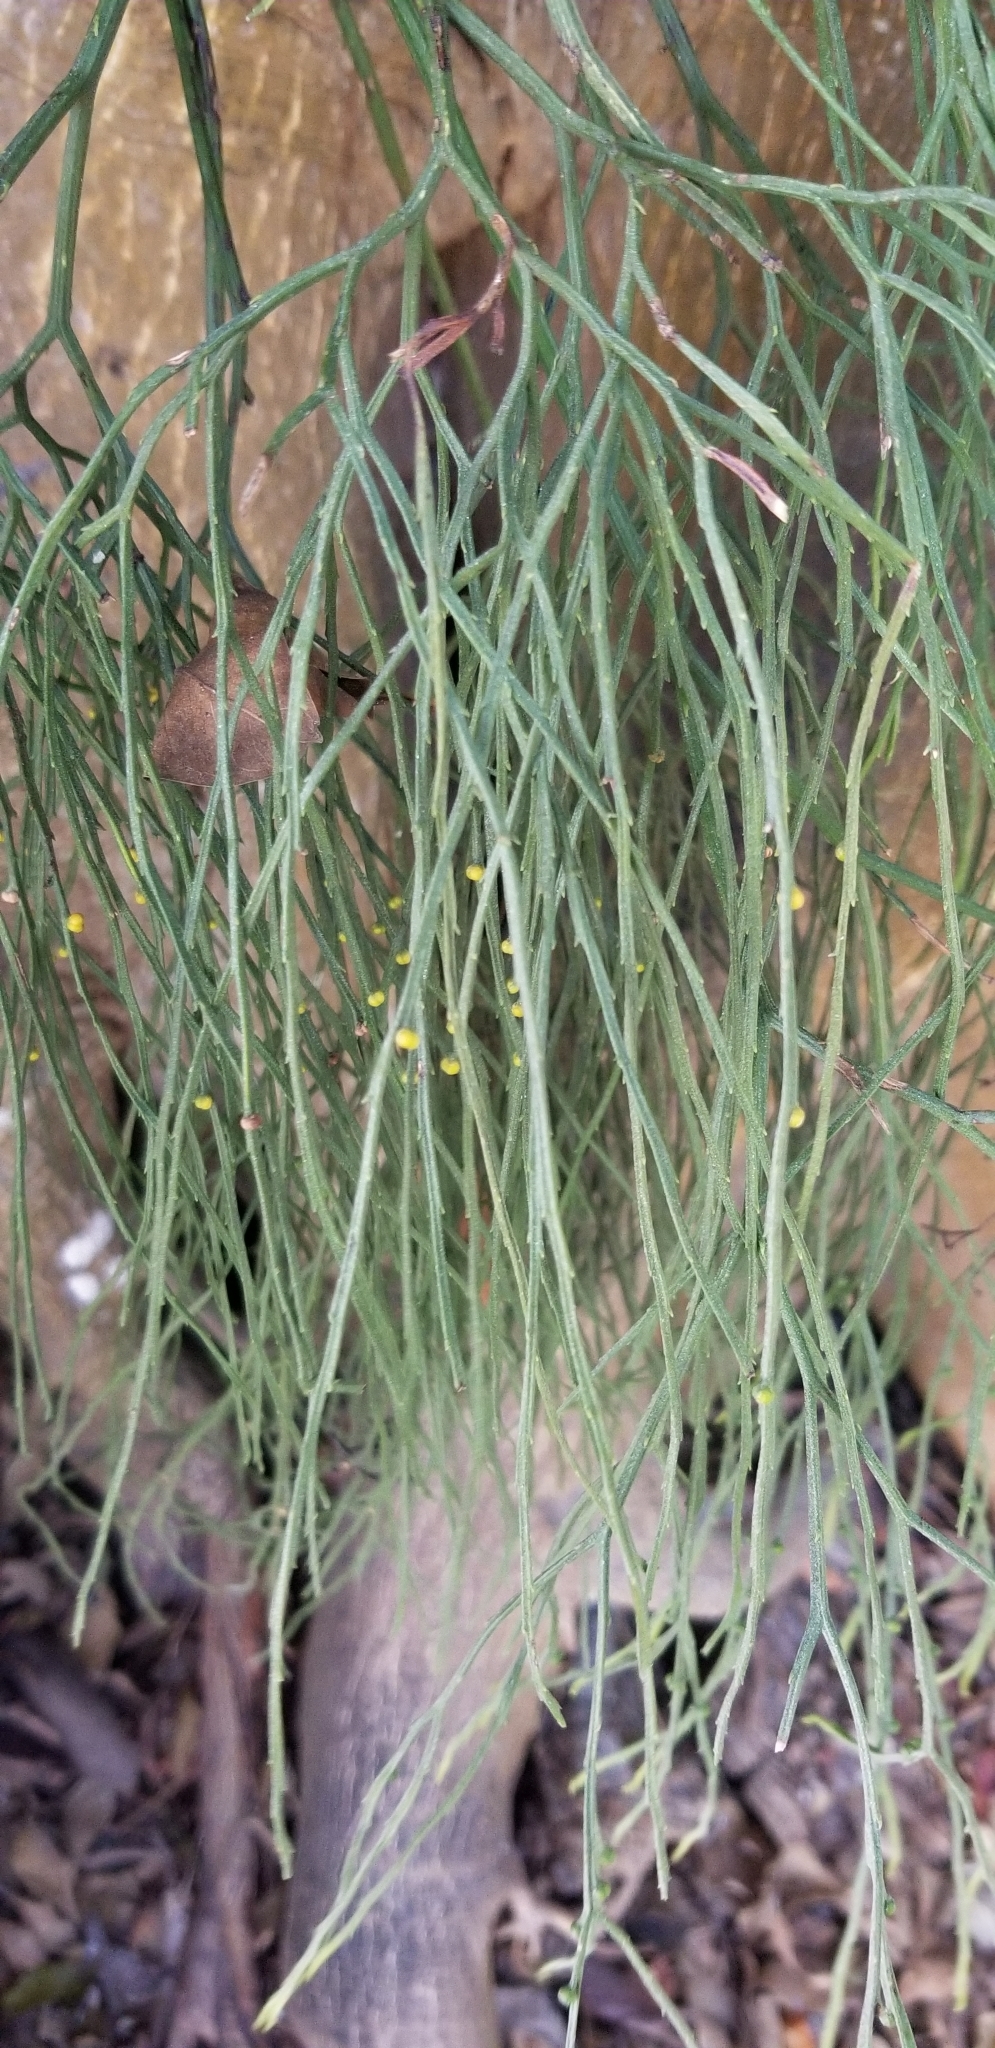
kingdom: Plantae
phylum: Tracheophyta
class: Polypodiopsida
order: Psilotales
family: Psilotaceae
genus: Psilotum
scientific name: Psilotum nudum
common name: Skeleton fork fern
